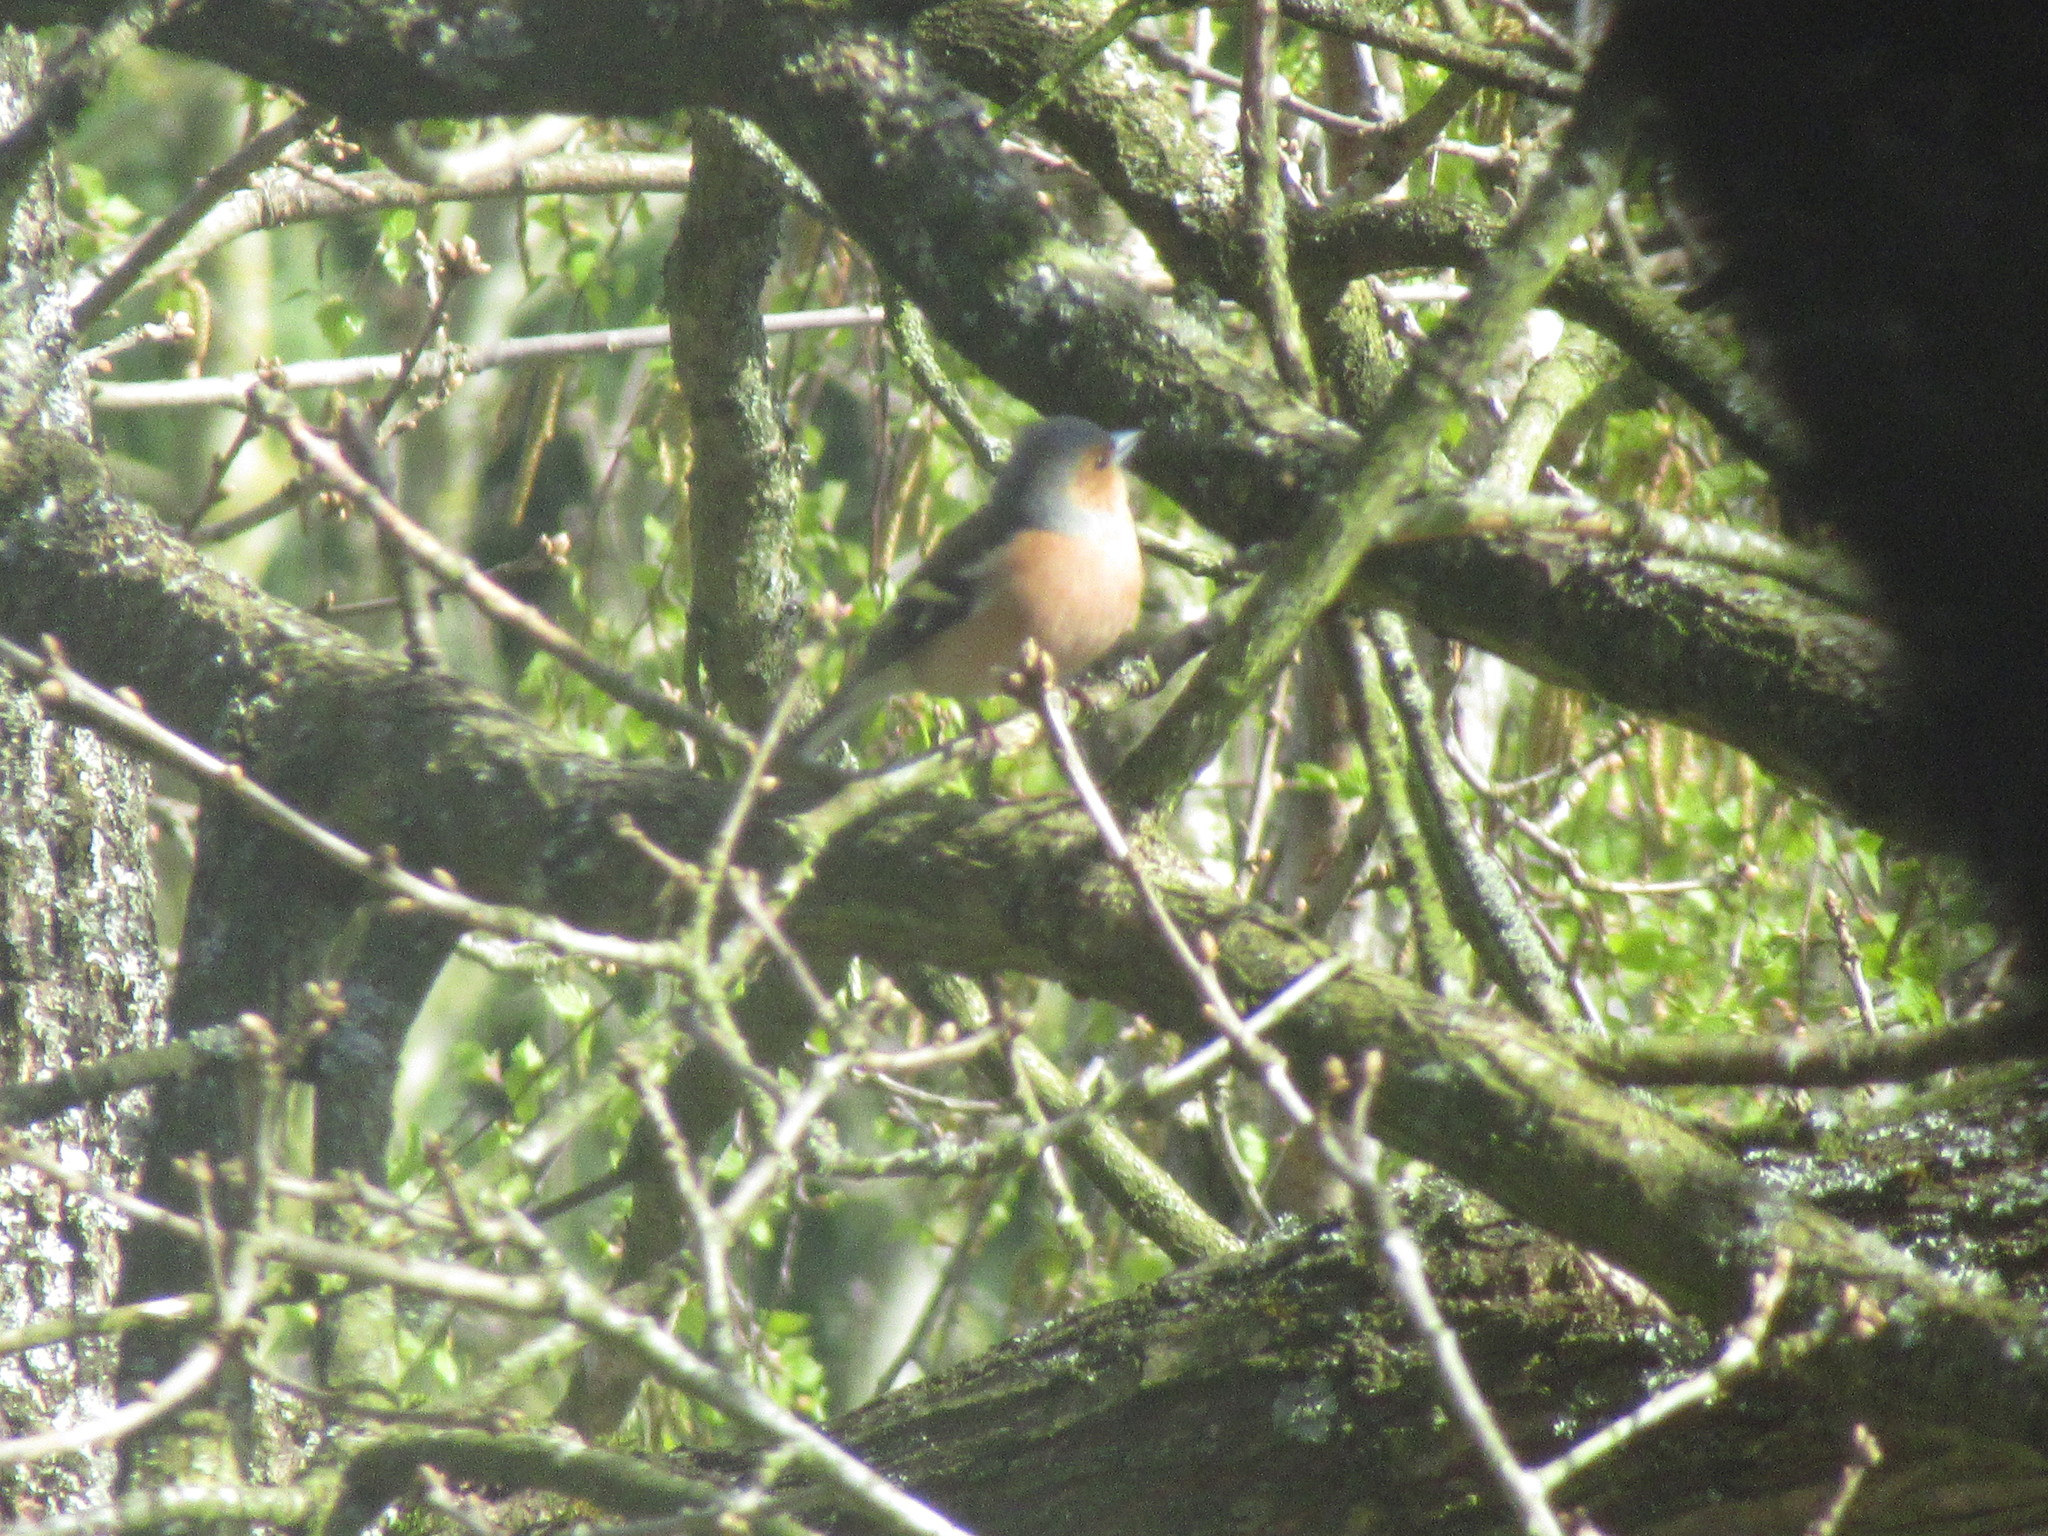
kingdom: Animalia
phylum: Chordata
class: Aves
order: Passeriformes
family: Fringillidae
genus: Fringilla
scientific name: Fringilla coelebs
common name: Common chaffinch
